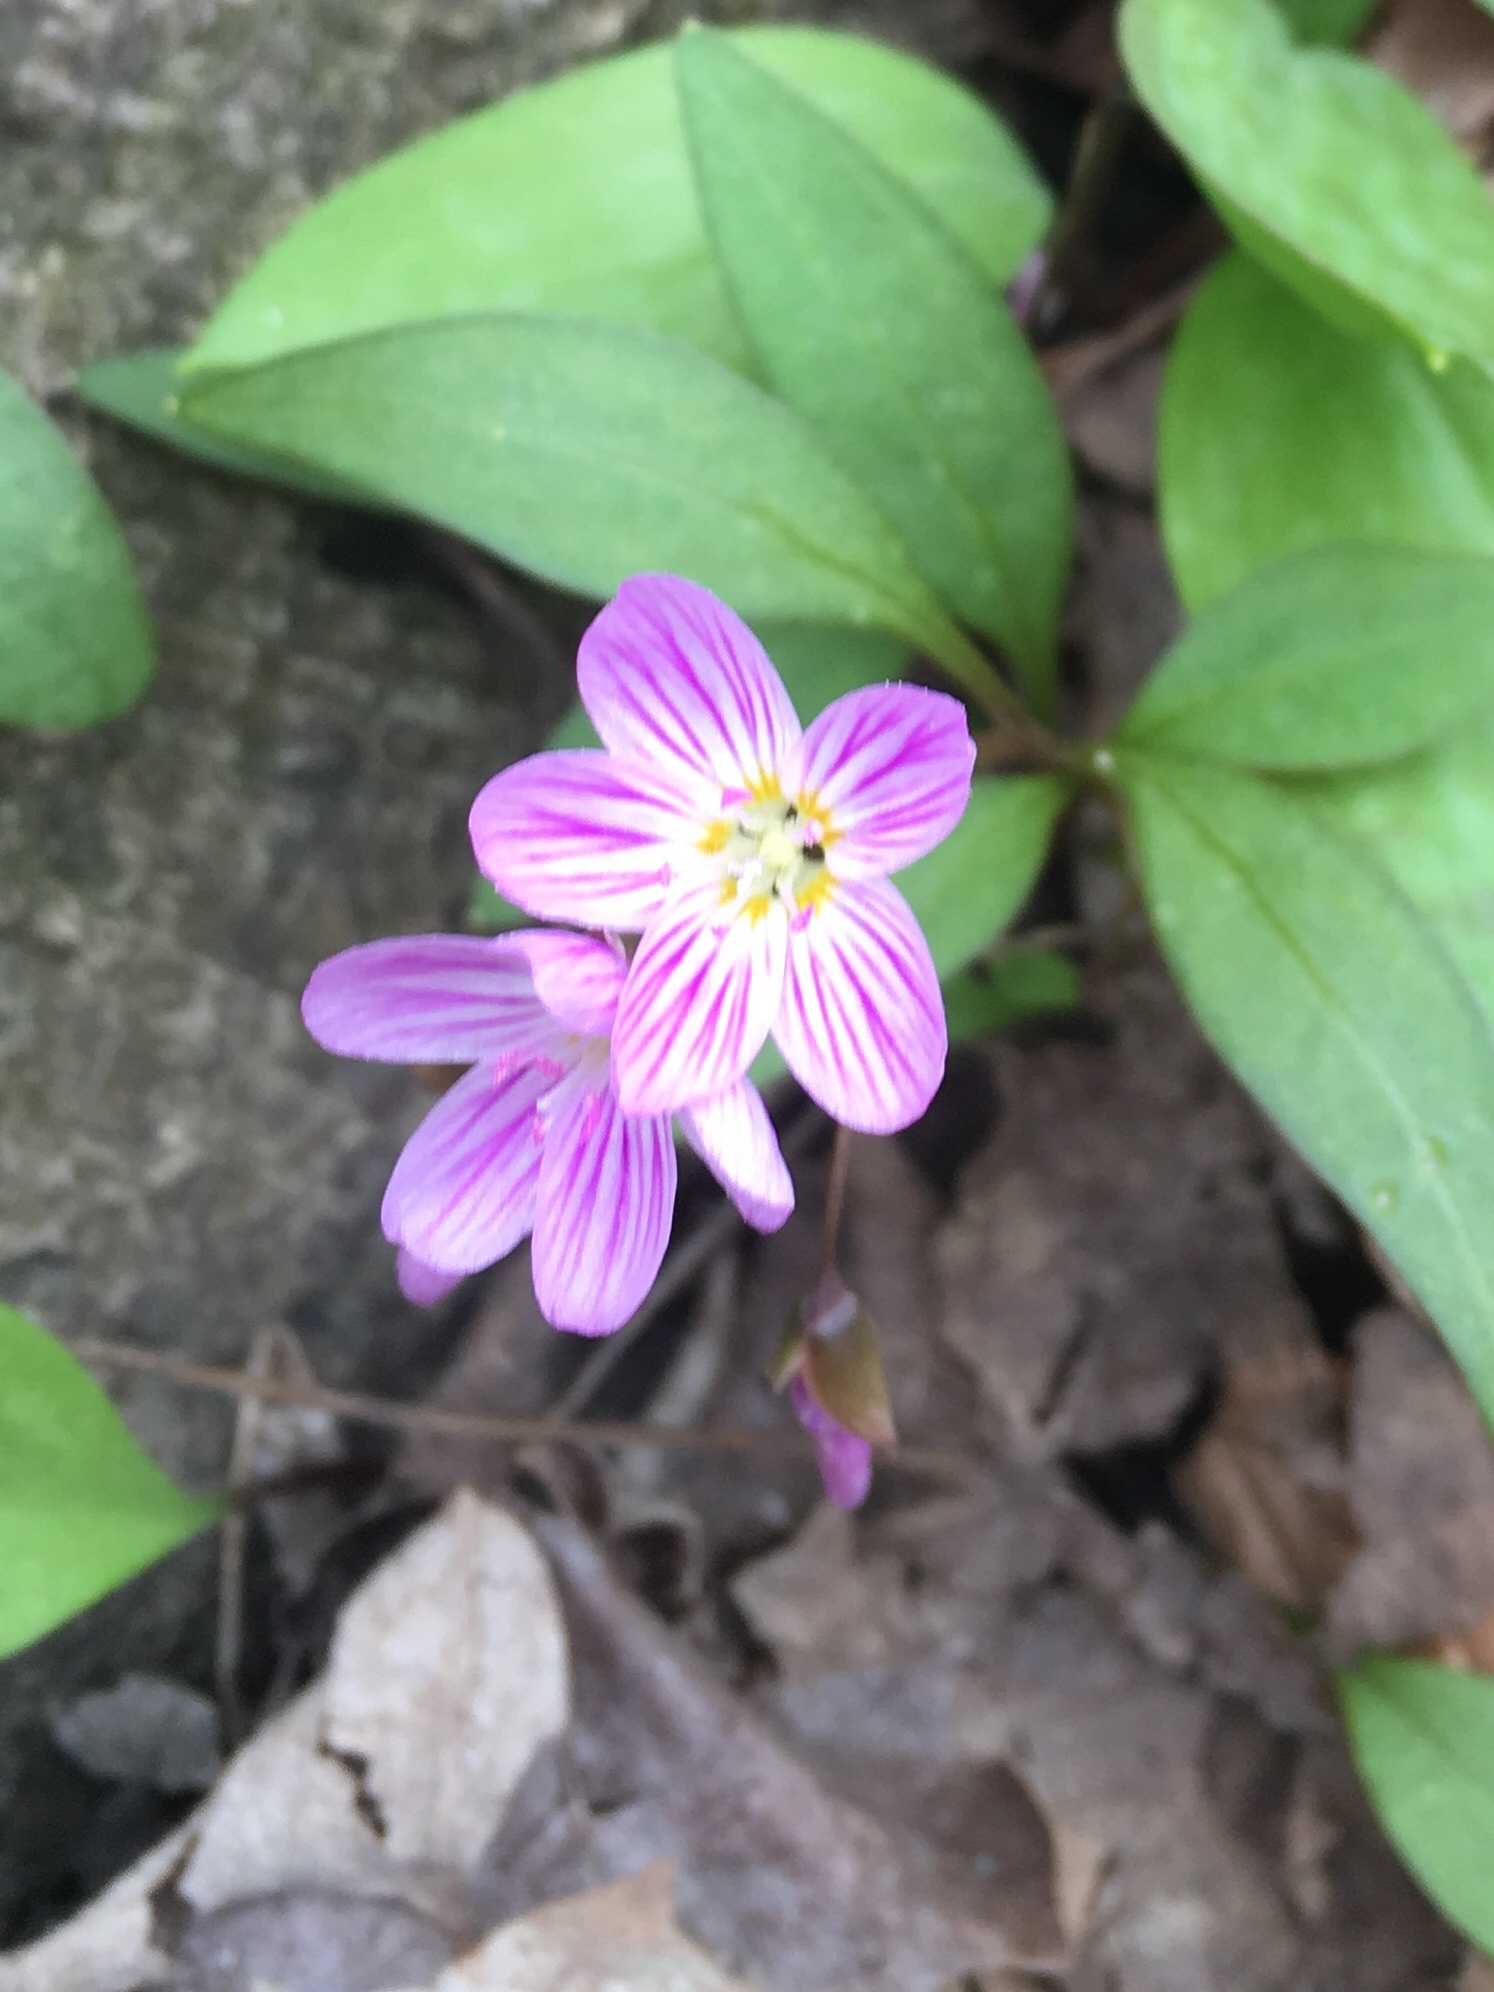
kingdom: Plantae
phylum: Tracheophyta
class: Magnoliopsida
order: Caryophyllales
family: Montiaceae
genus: Claytonia
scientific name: Claytonia caroliniana
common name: Carolina spring beauty
